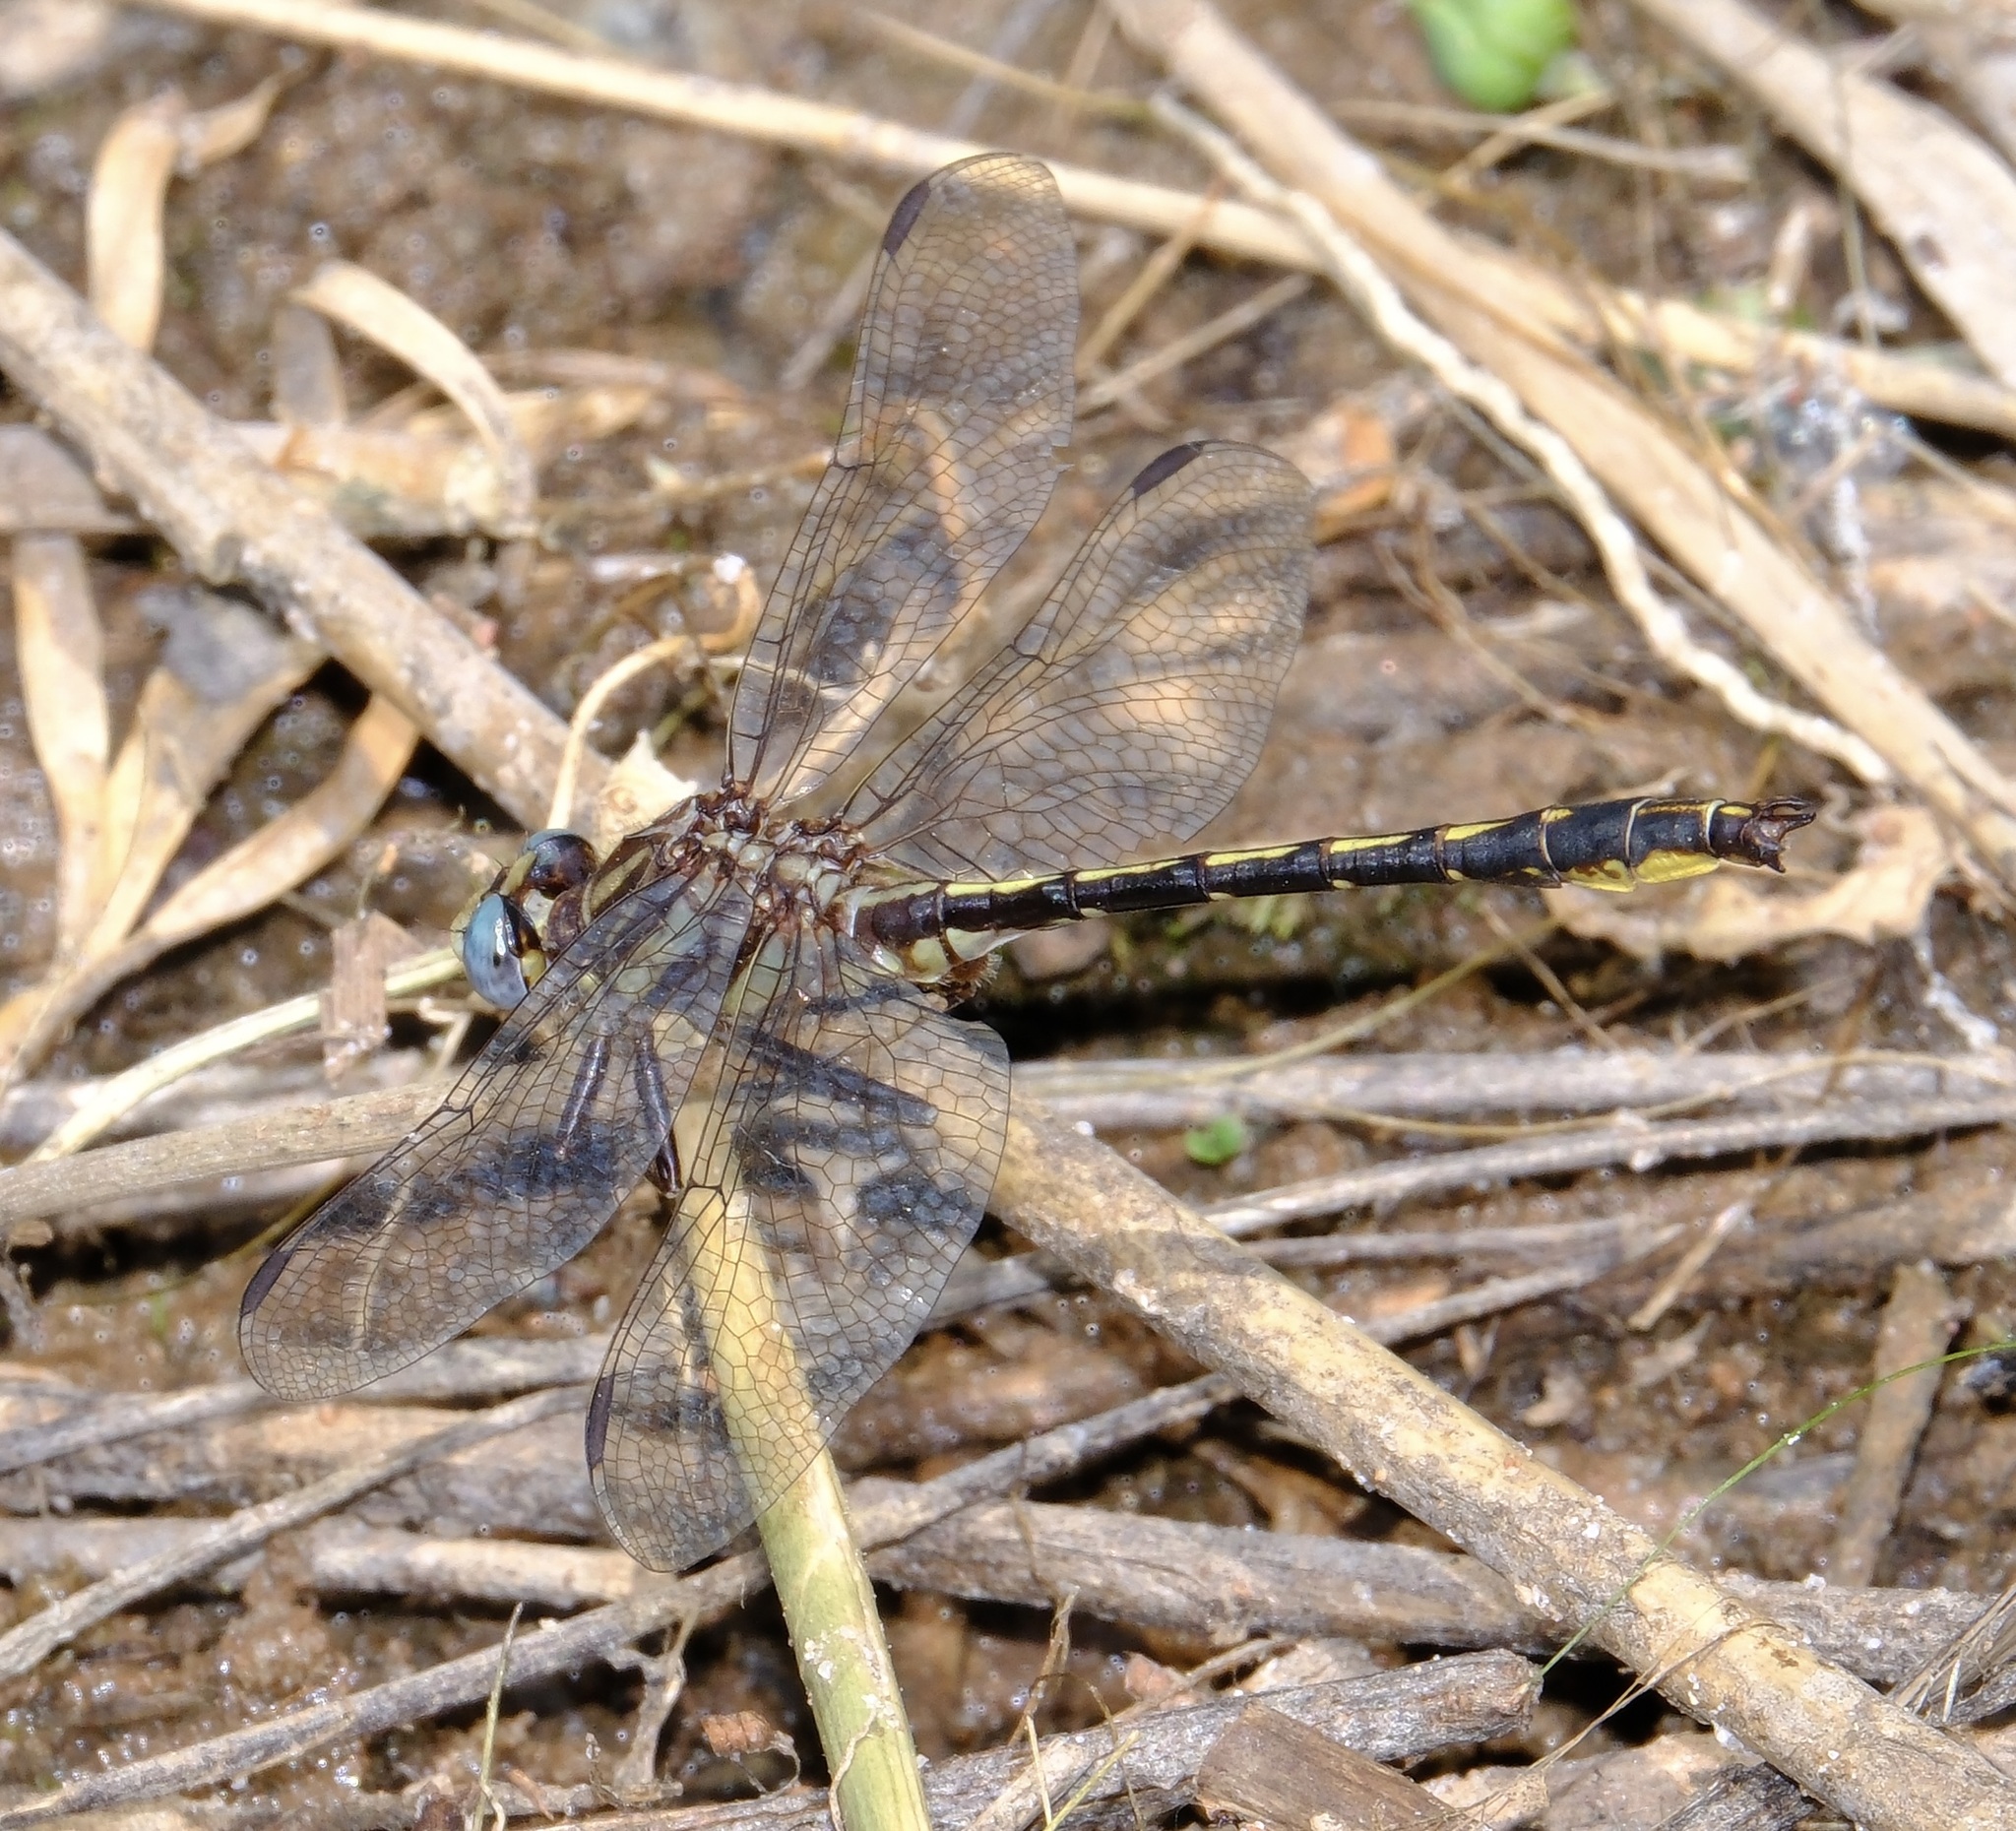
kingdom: Animalia
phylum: Arthropoda
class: Insecta
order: Odonata
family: Gomphidae
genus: Phanogomphus
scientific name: Phanogomphus oklahomensis
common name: Oklahoma clubtail
